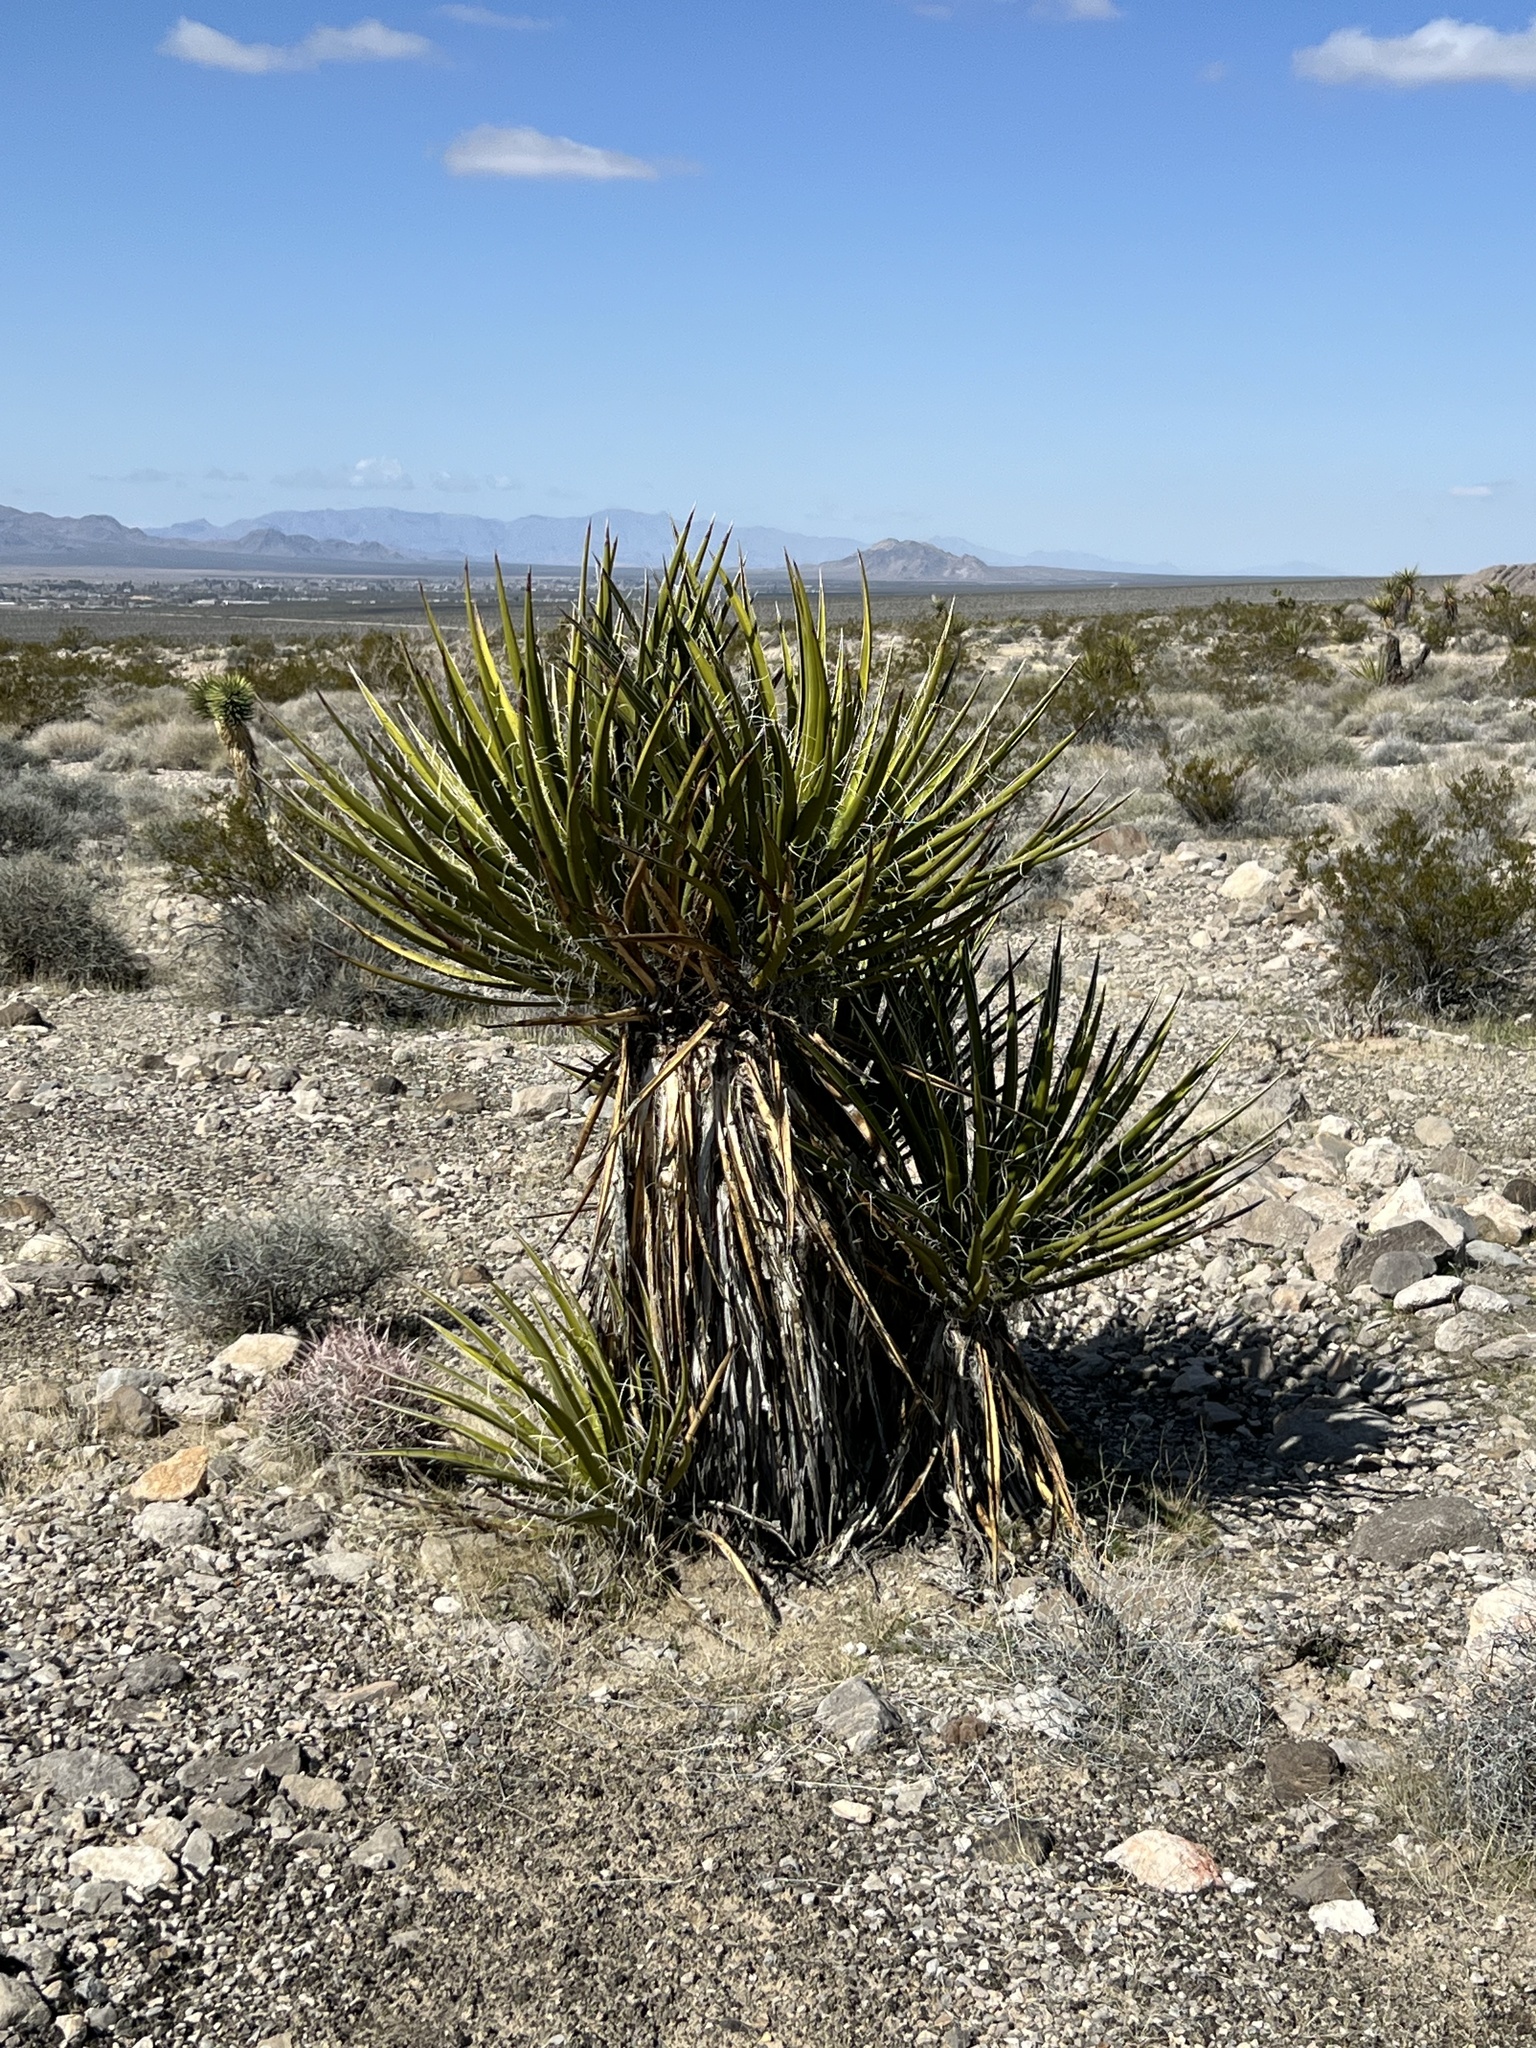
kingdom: Plantae
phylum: Tracheophyta
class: Liliopsida
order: Asparagales
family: Asparagaceae
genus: Yucca
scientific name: Yucca schidigera
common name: Mojave yucca
